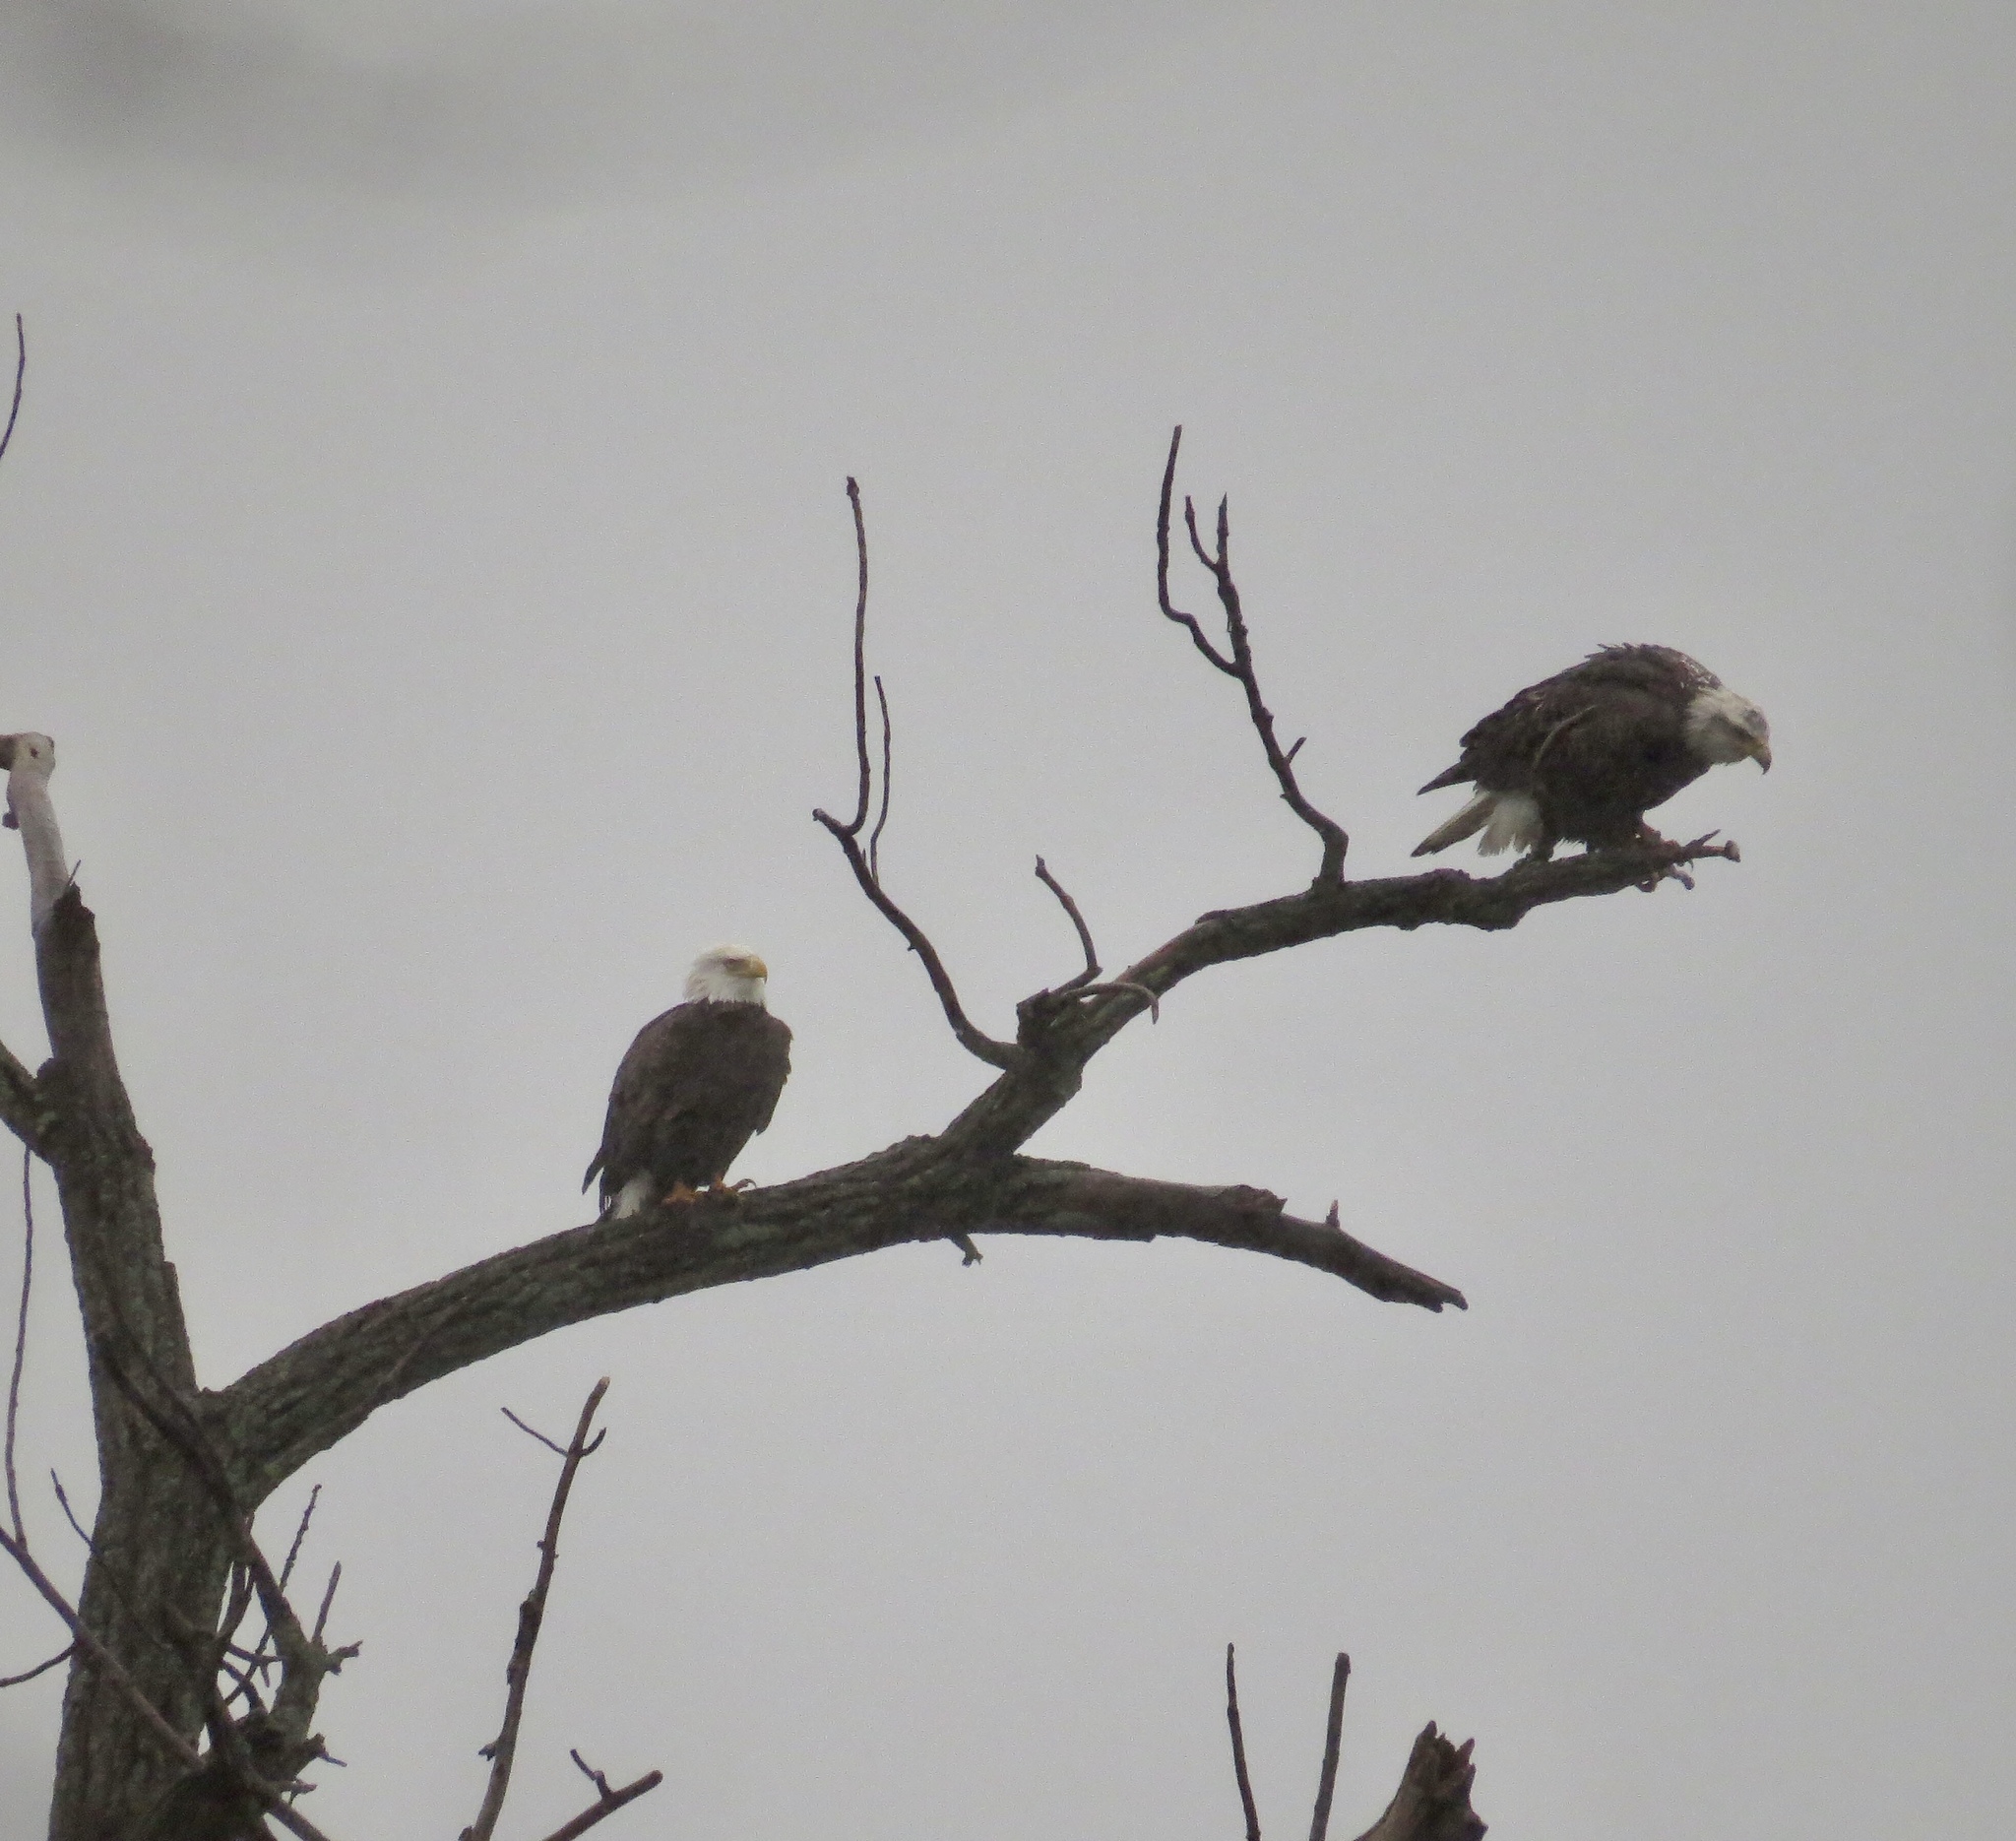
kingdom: Animalia
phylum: Chordata
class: Aves
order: Accipitriformes
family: Accipitridae
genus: Haliaeetus
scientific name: Haliaeetus leucocephalus
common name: Bald eagle
